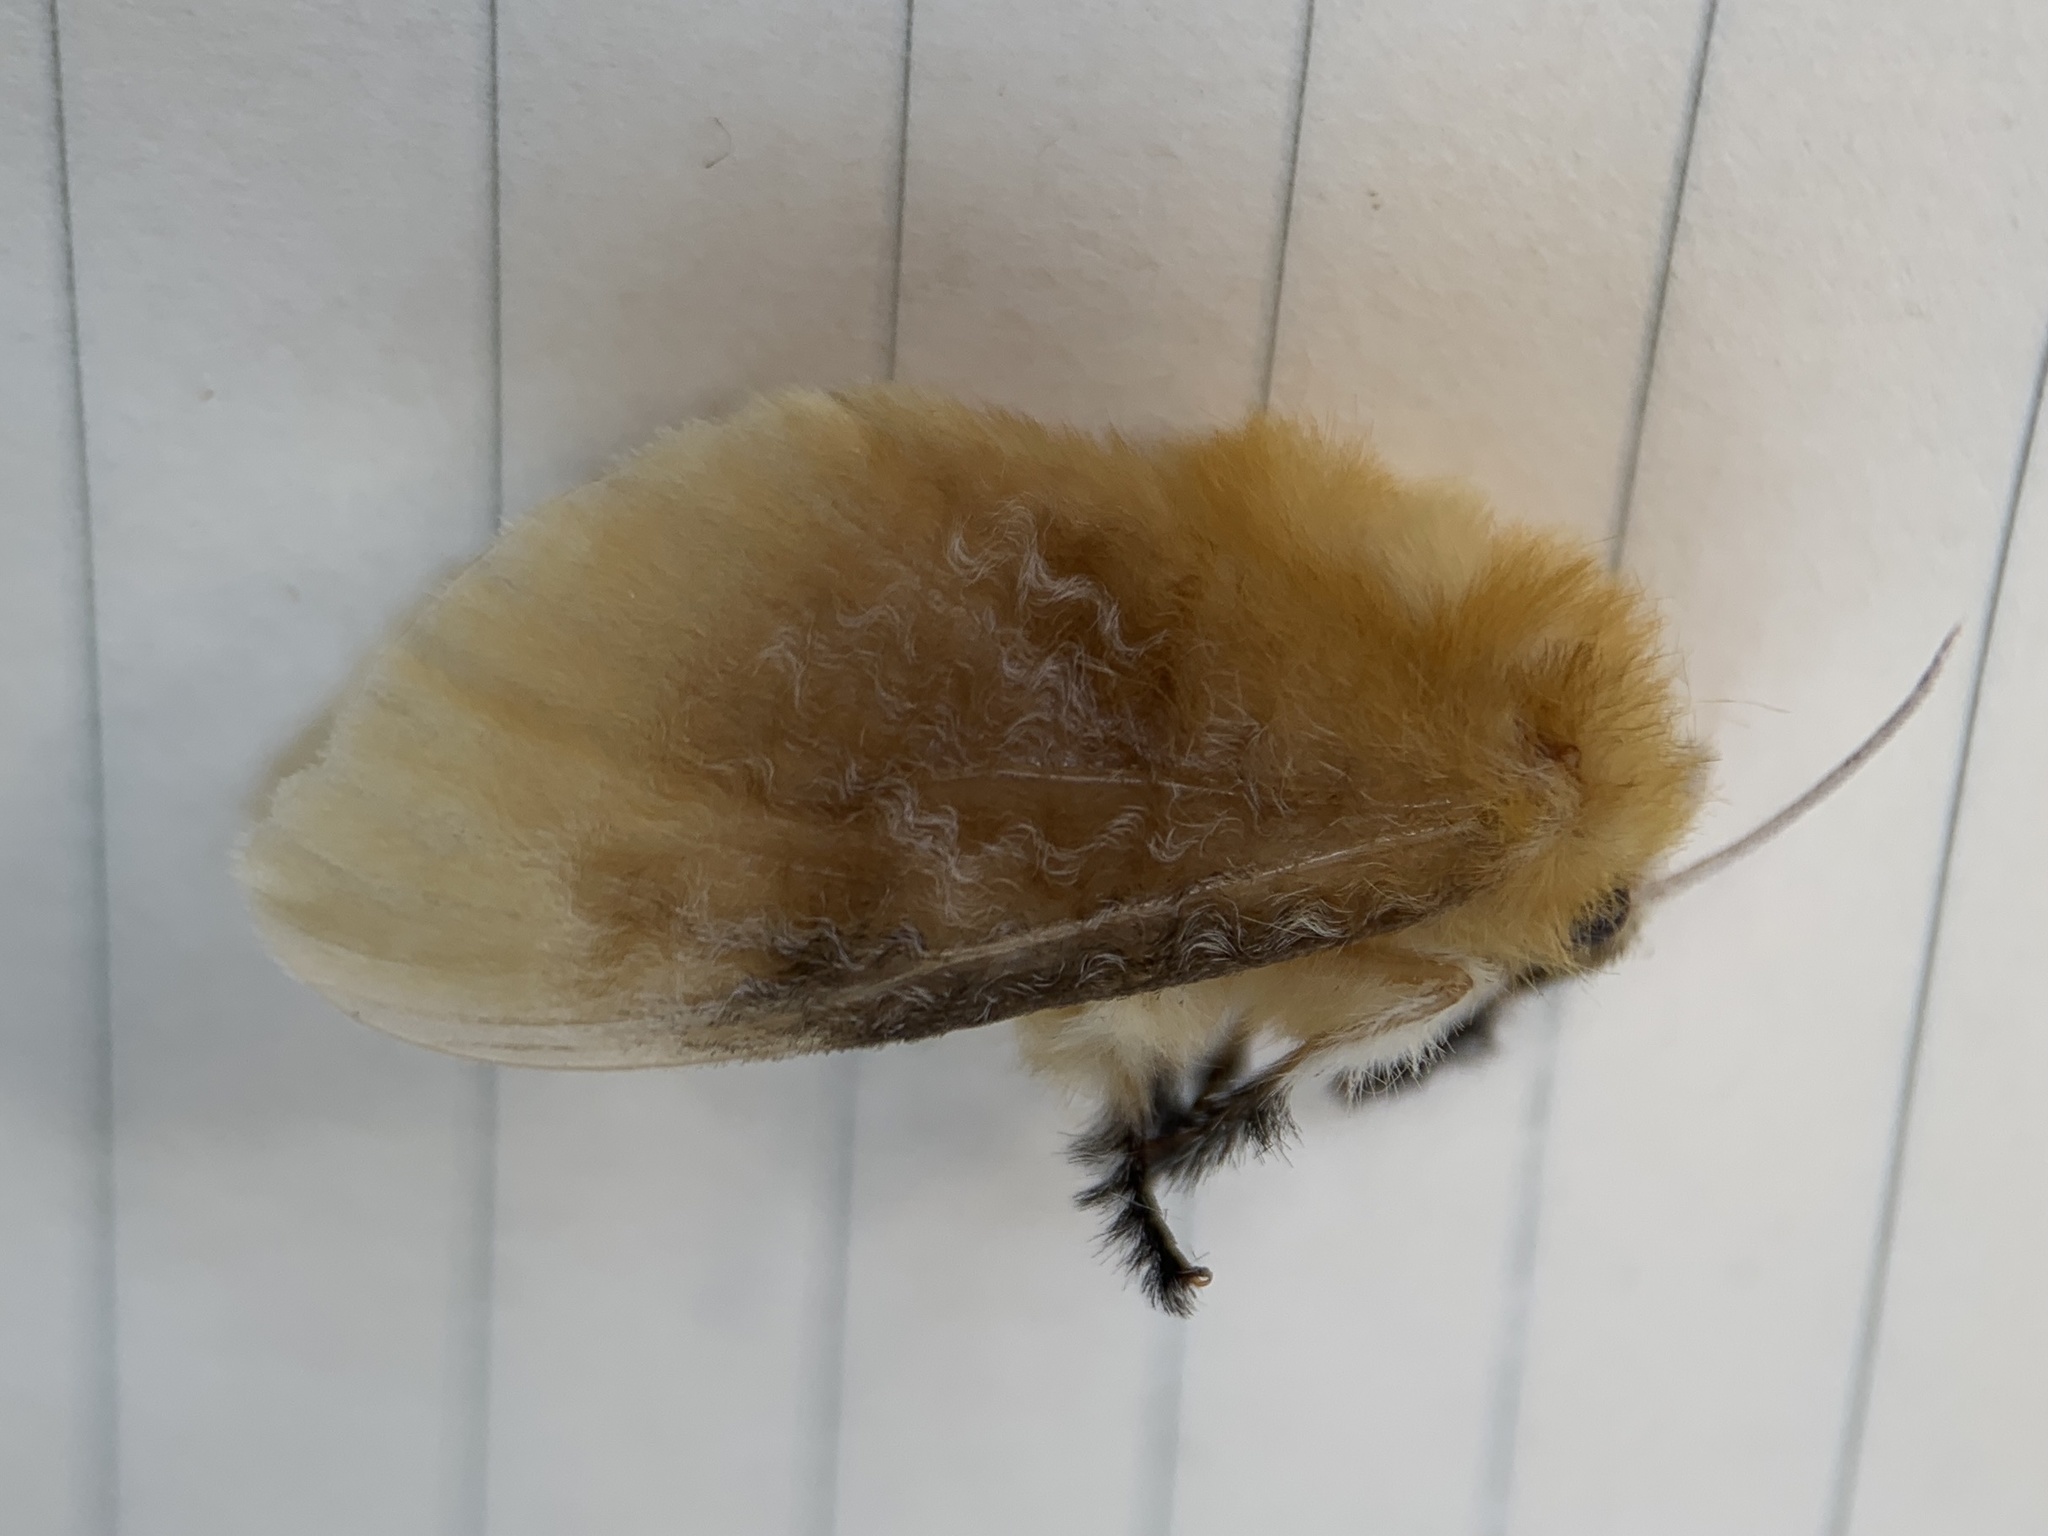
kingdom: Animalia
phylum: Arthropoda
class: Insecta
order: Lepidoptera
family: Megalopygidae
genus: Megalopyge
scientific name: Megalopyge opercularis
